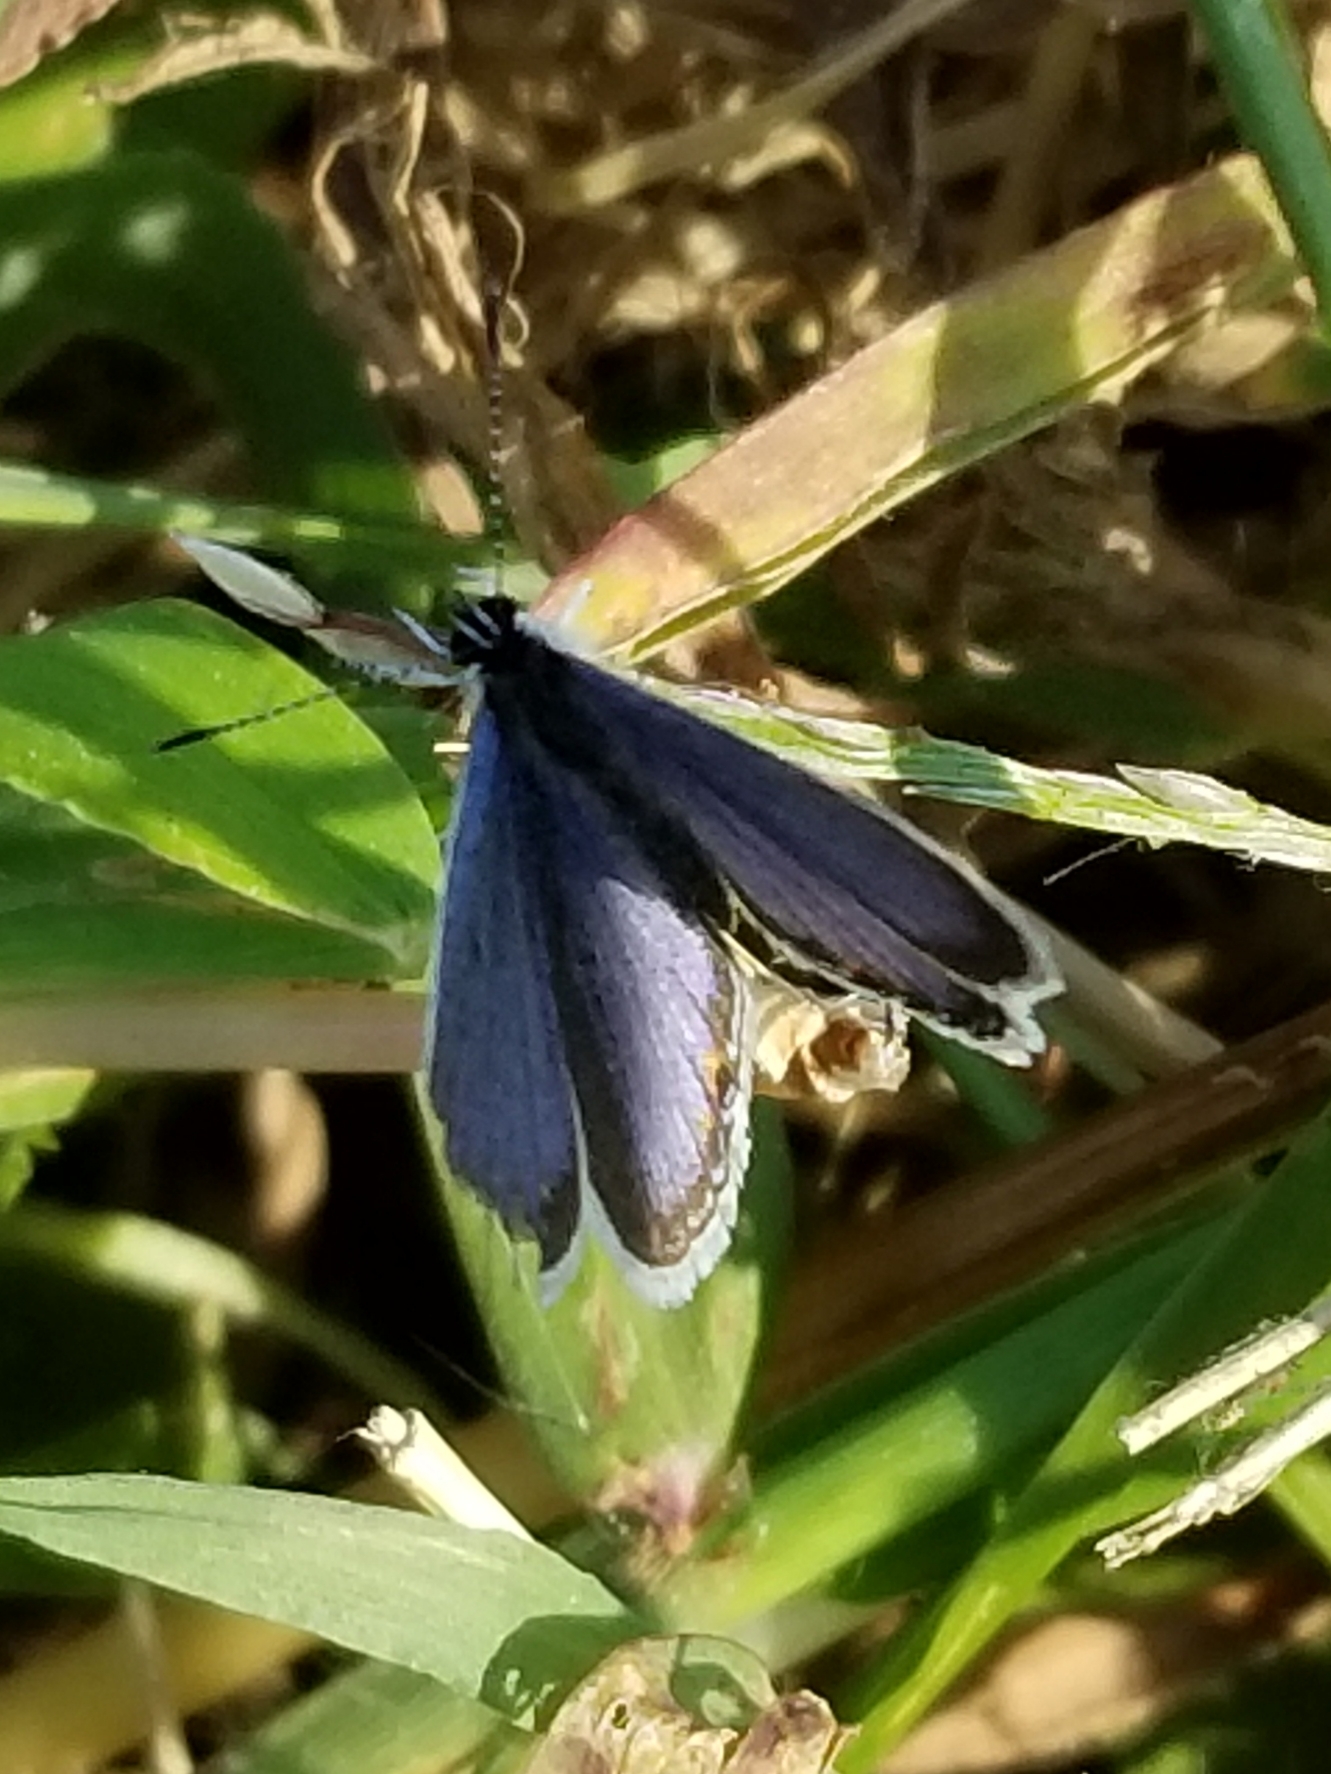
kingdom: Animalia
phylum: Arthropoda
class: Insecta
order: Lepidoptera
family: Lycaenidae
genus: Elkalyce
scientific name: Elkalyce comyntas
